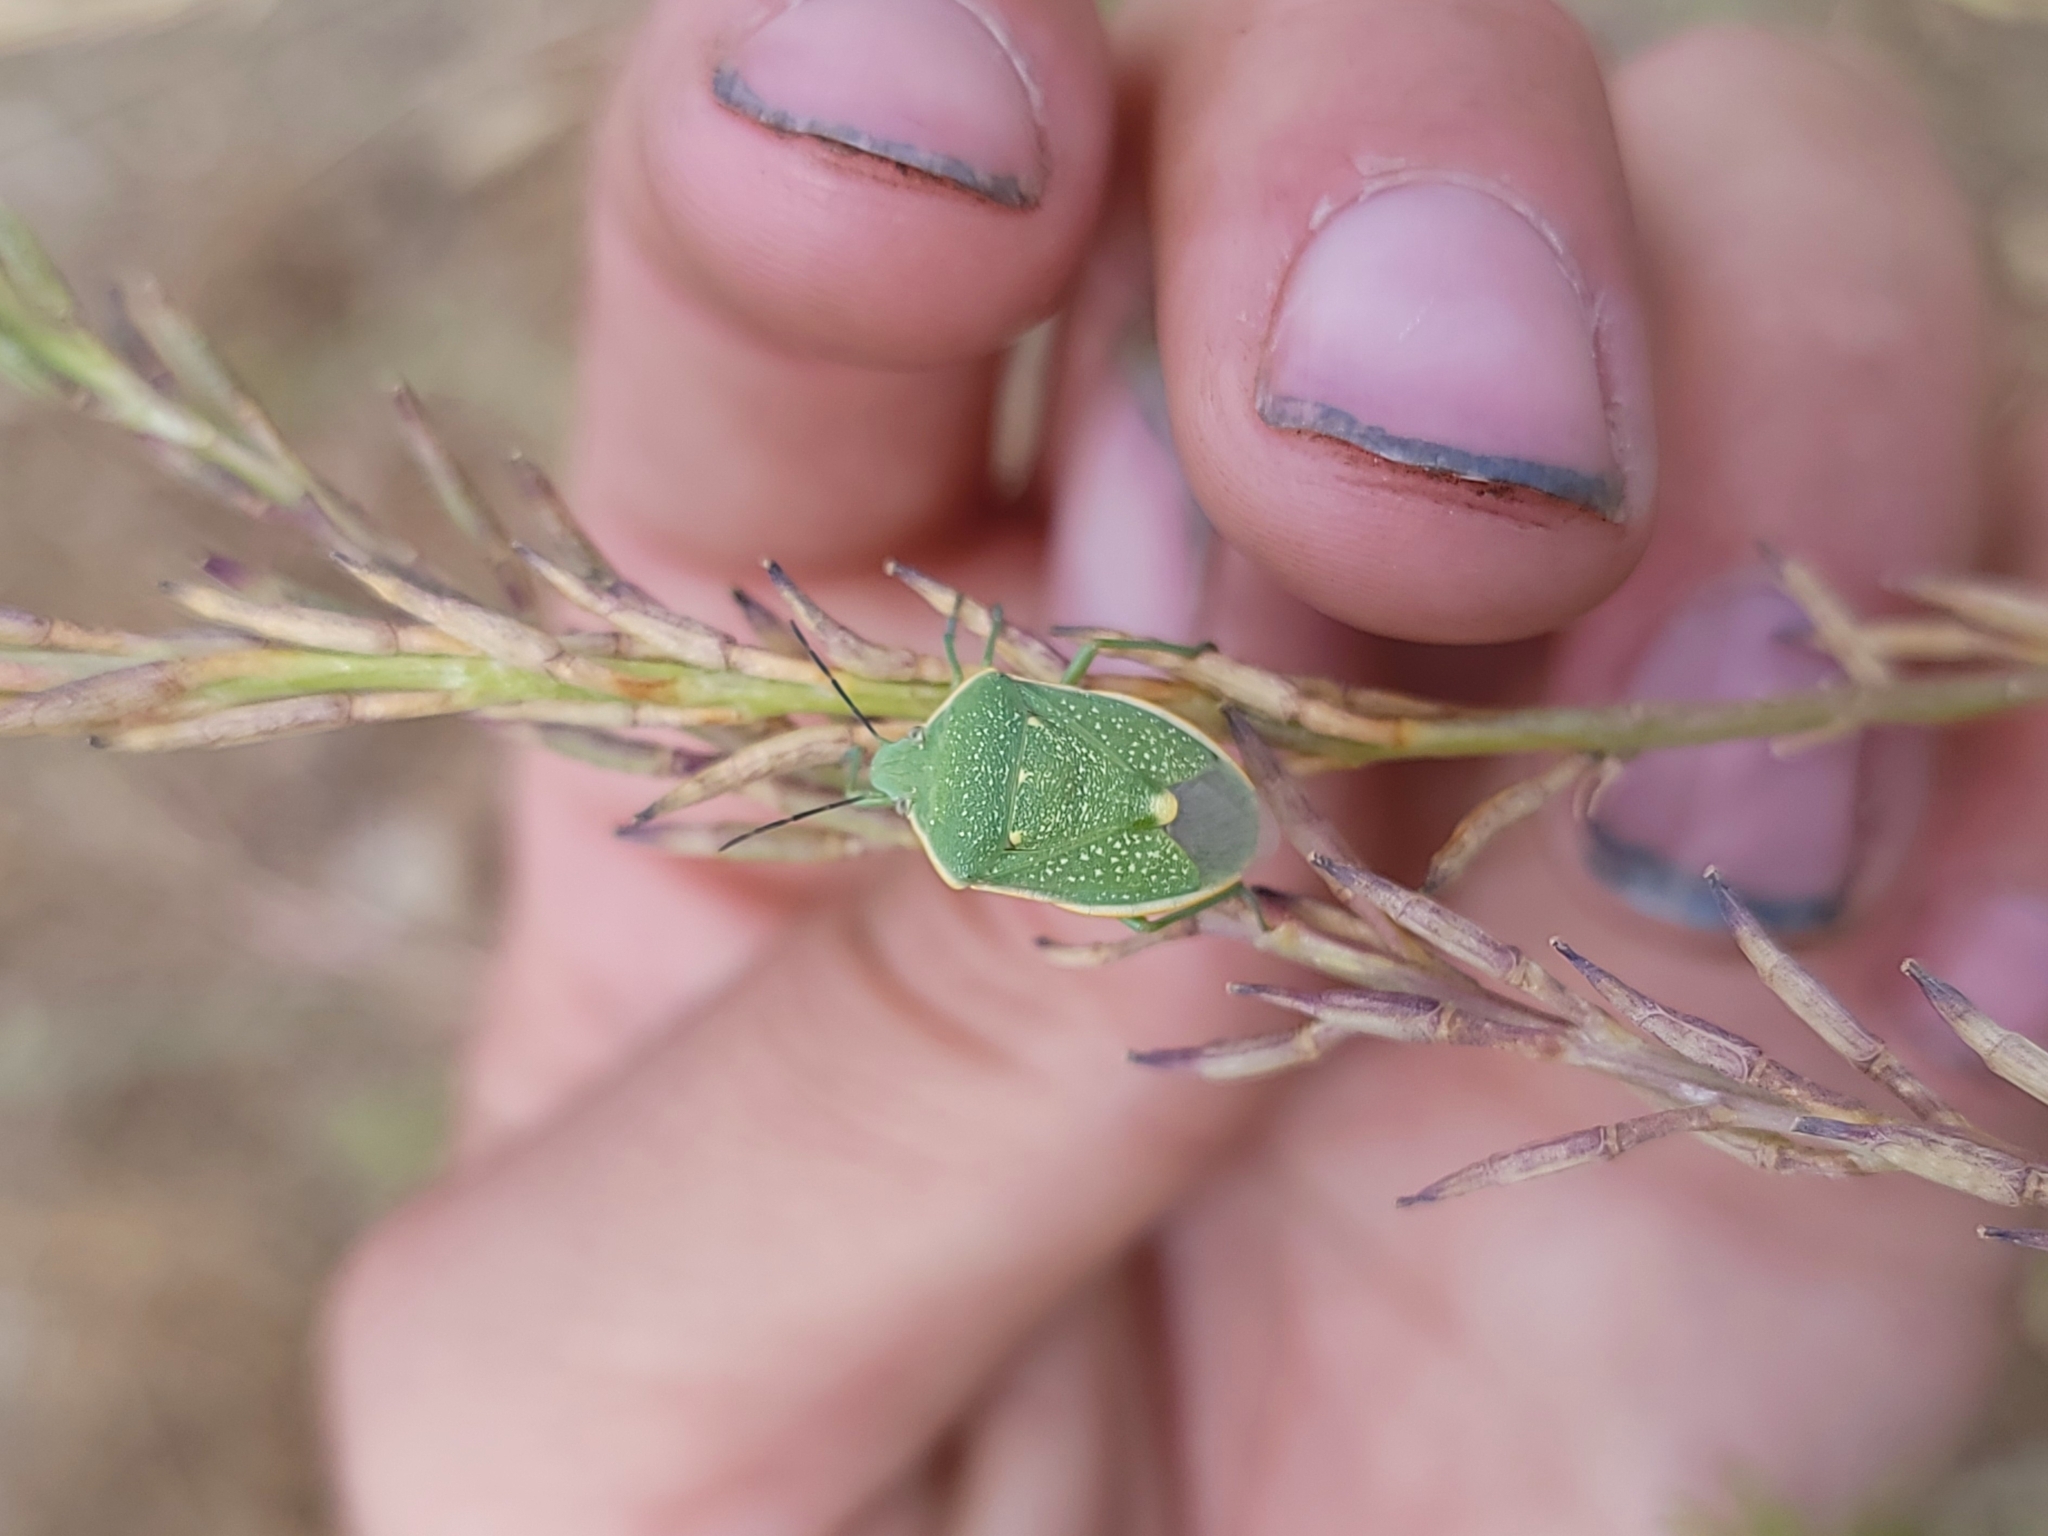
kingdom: Animalia
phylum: Arthropoda
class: Insecta
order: Hemiptera
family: Pentatomidae
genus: Chlorochroa
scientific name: Chlorochroa uhleri
